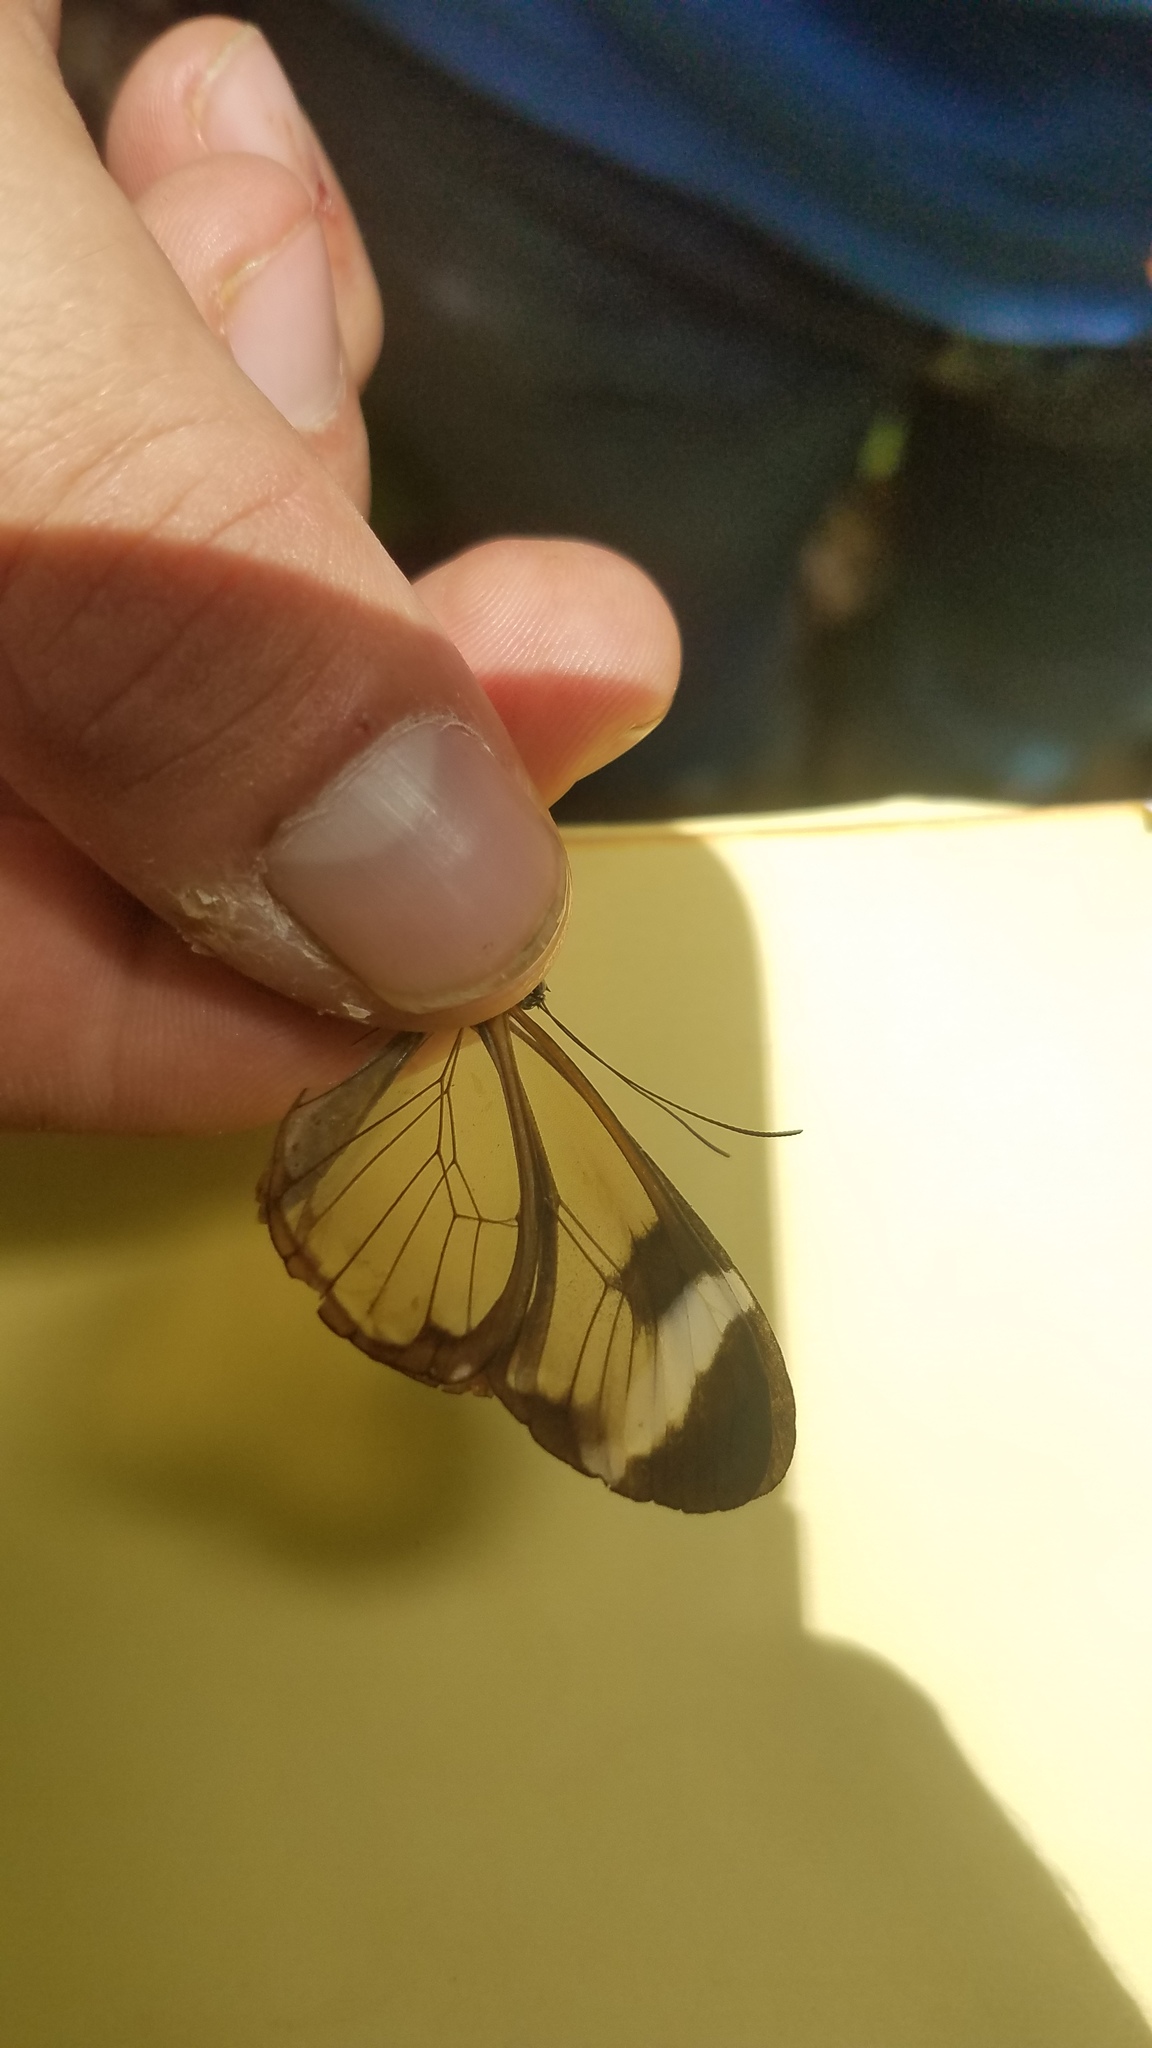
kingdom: Animalia
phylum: Arthropoda
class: Insecta
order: Lepidoptera
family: Nymphalidae
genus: Greta
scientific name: Greta morgane
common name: Thick-tipped greta
